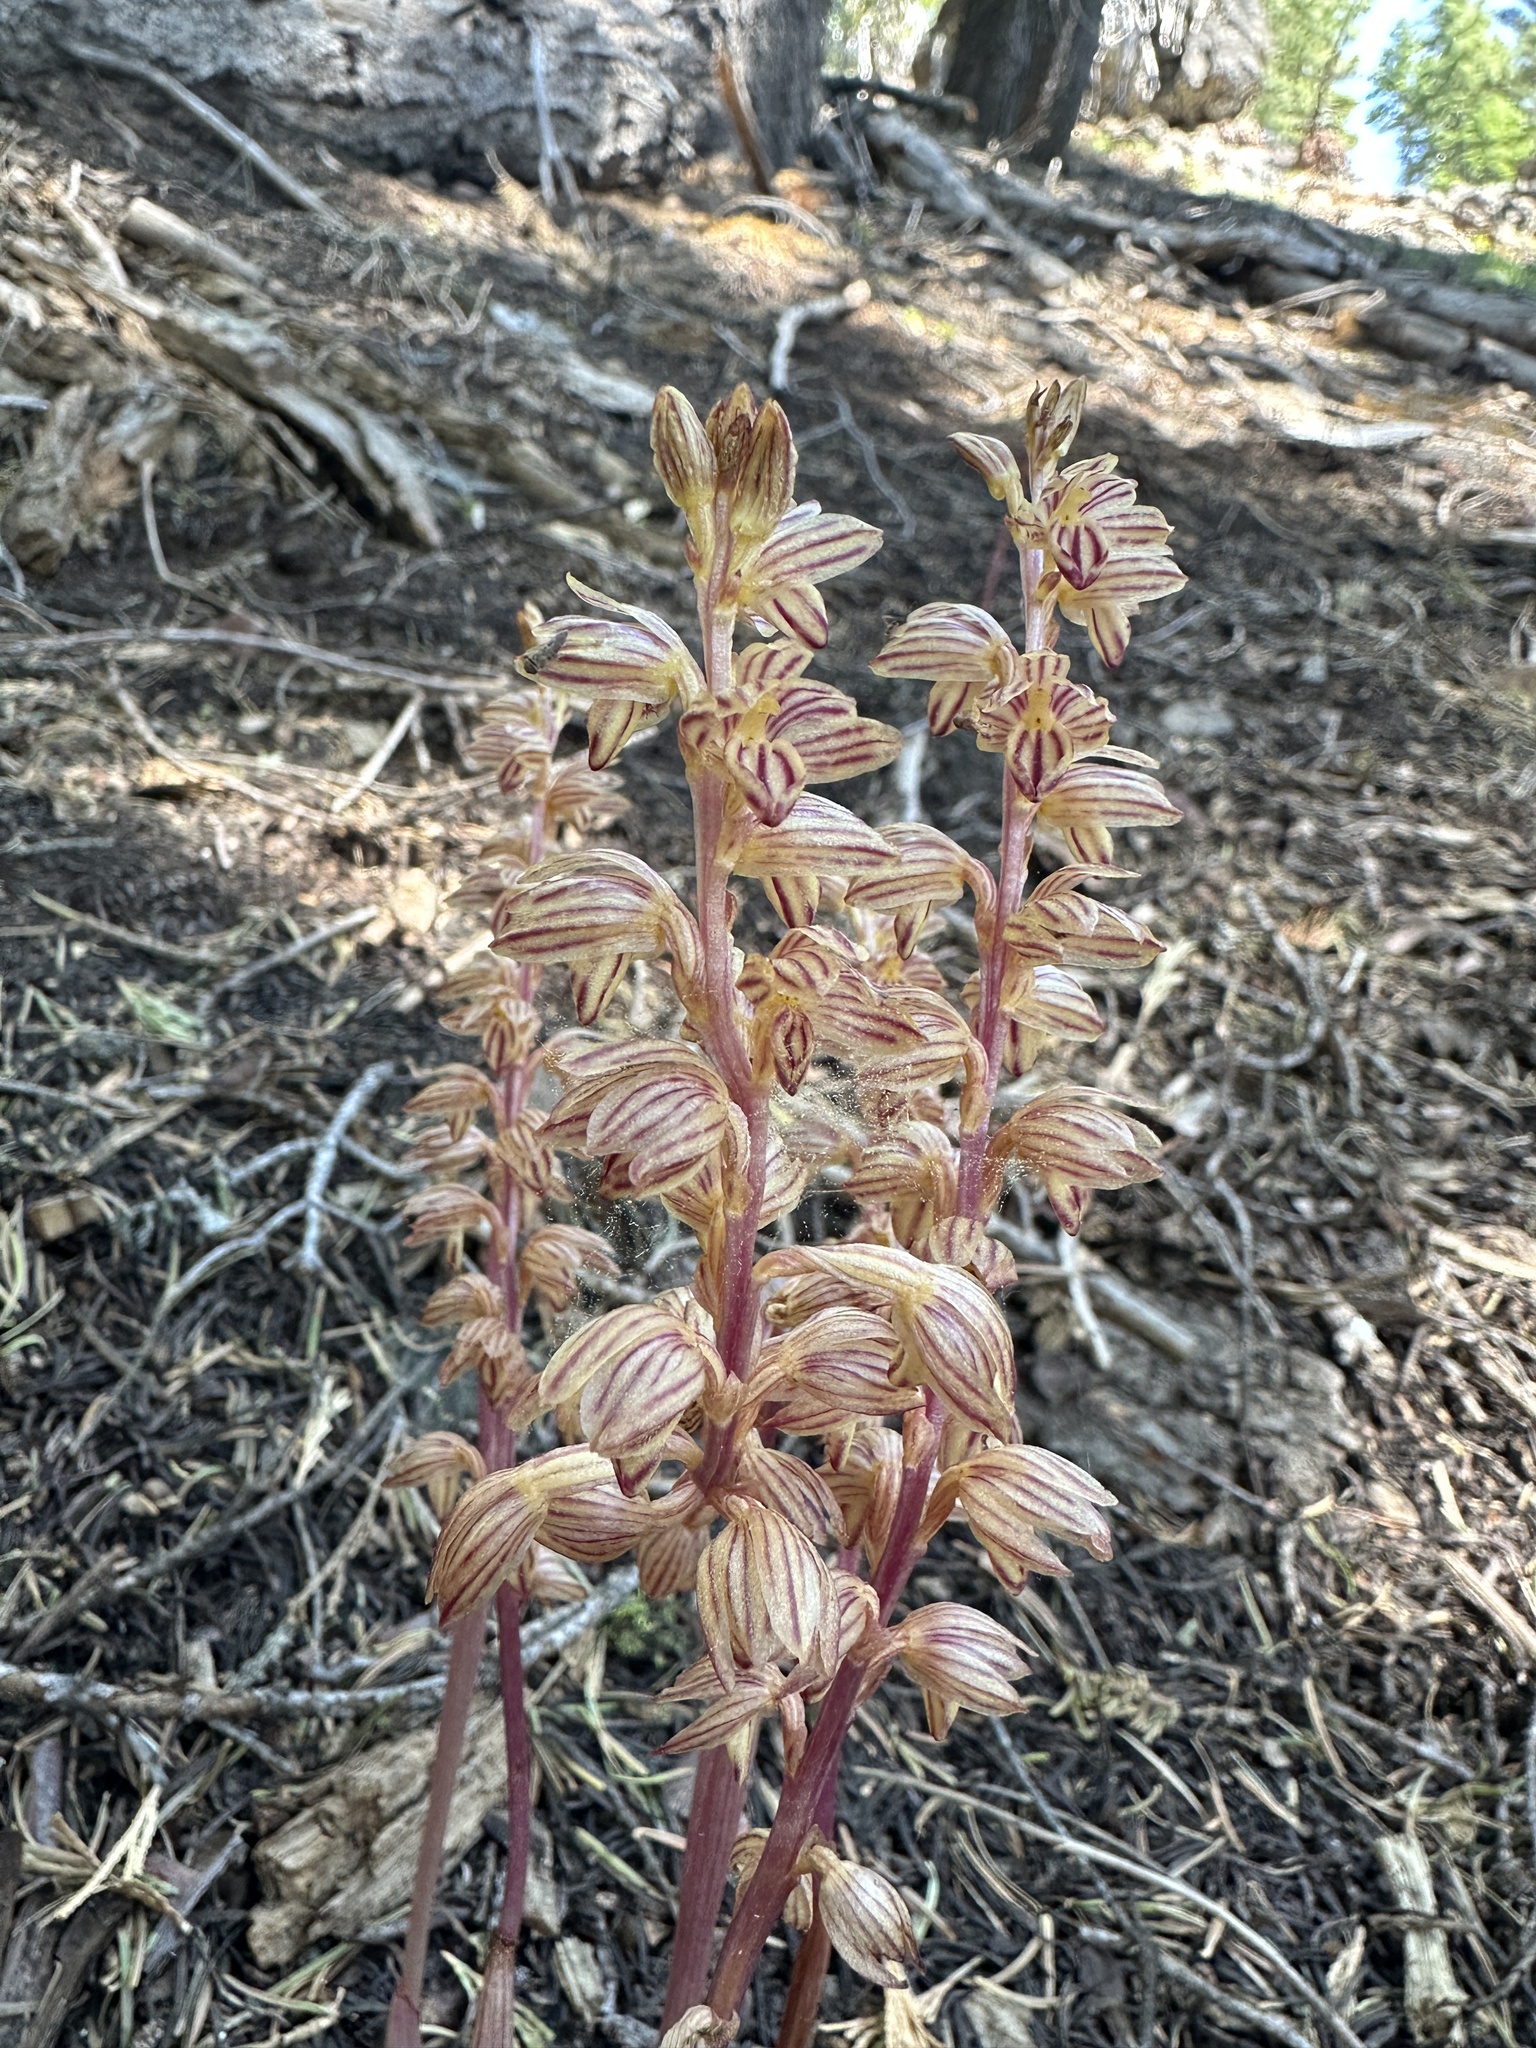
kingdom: Plantae
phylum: Tracheophyta
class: Liliopsida
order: Asparagales
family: Orchidaceae
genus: Corallorhiza
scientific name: Corallorhiza striata
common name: Hooded coralroot
